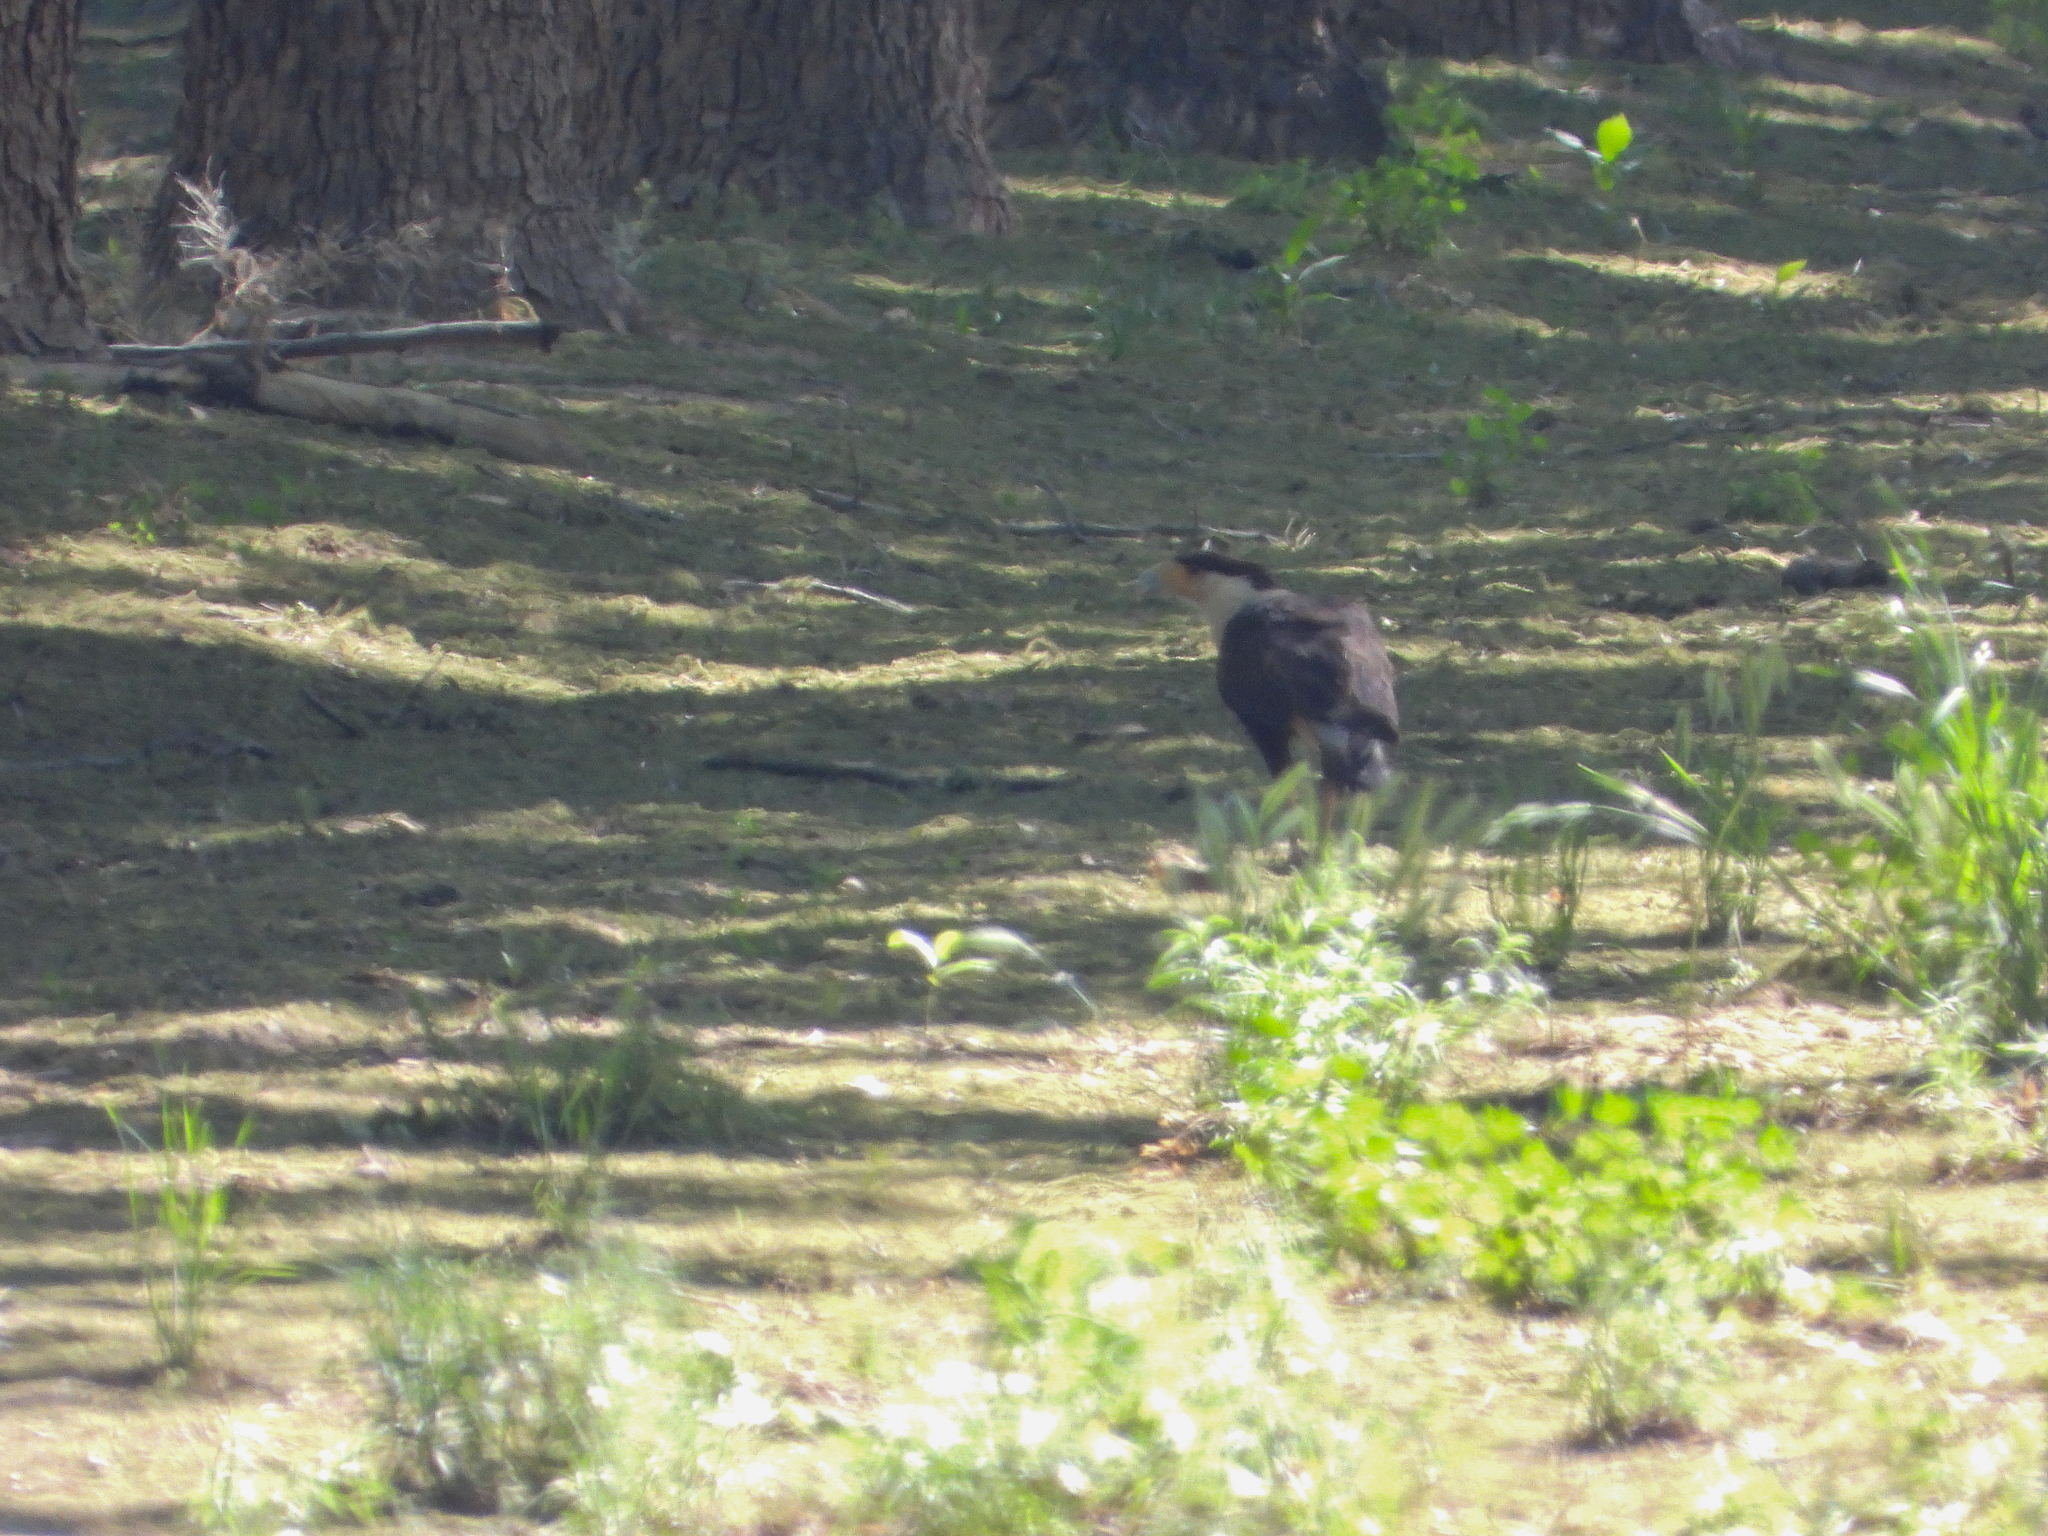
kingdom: Animalia
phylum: Chordata
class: Aves
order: Falconiformes
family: Falconidae
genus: Caracara
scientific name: Caracara plancus
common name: Southern caracara
